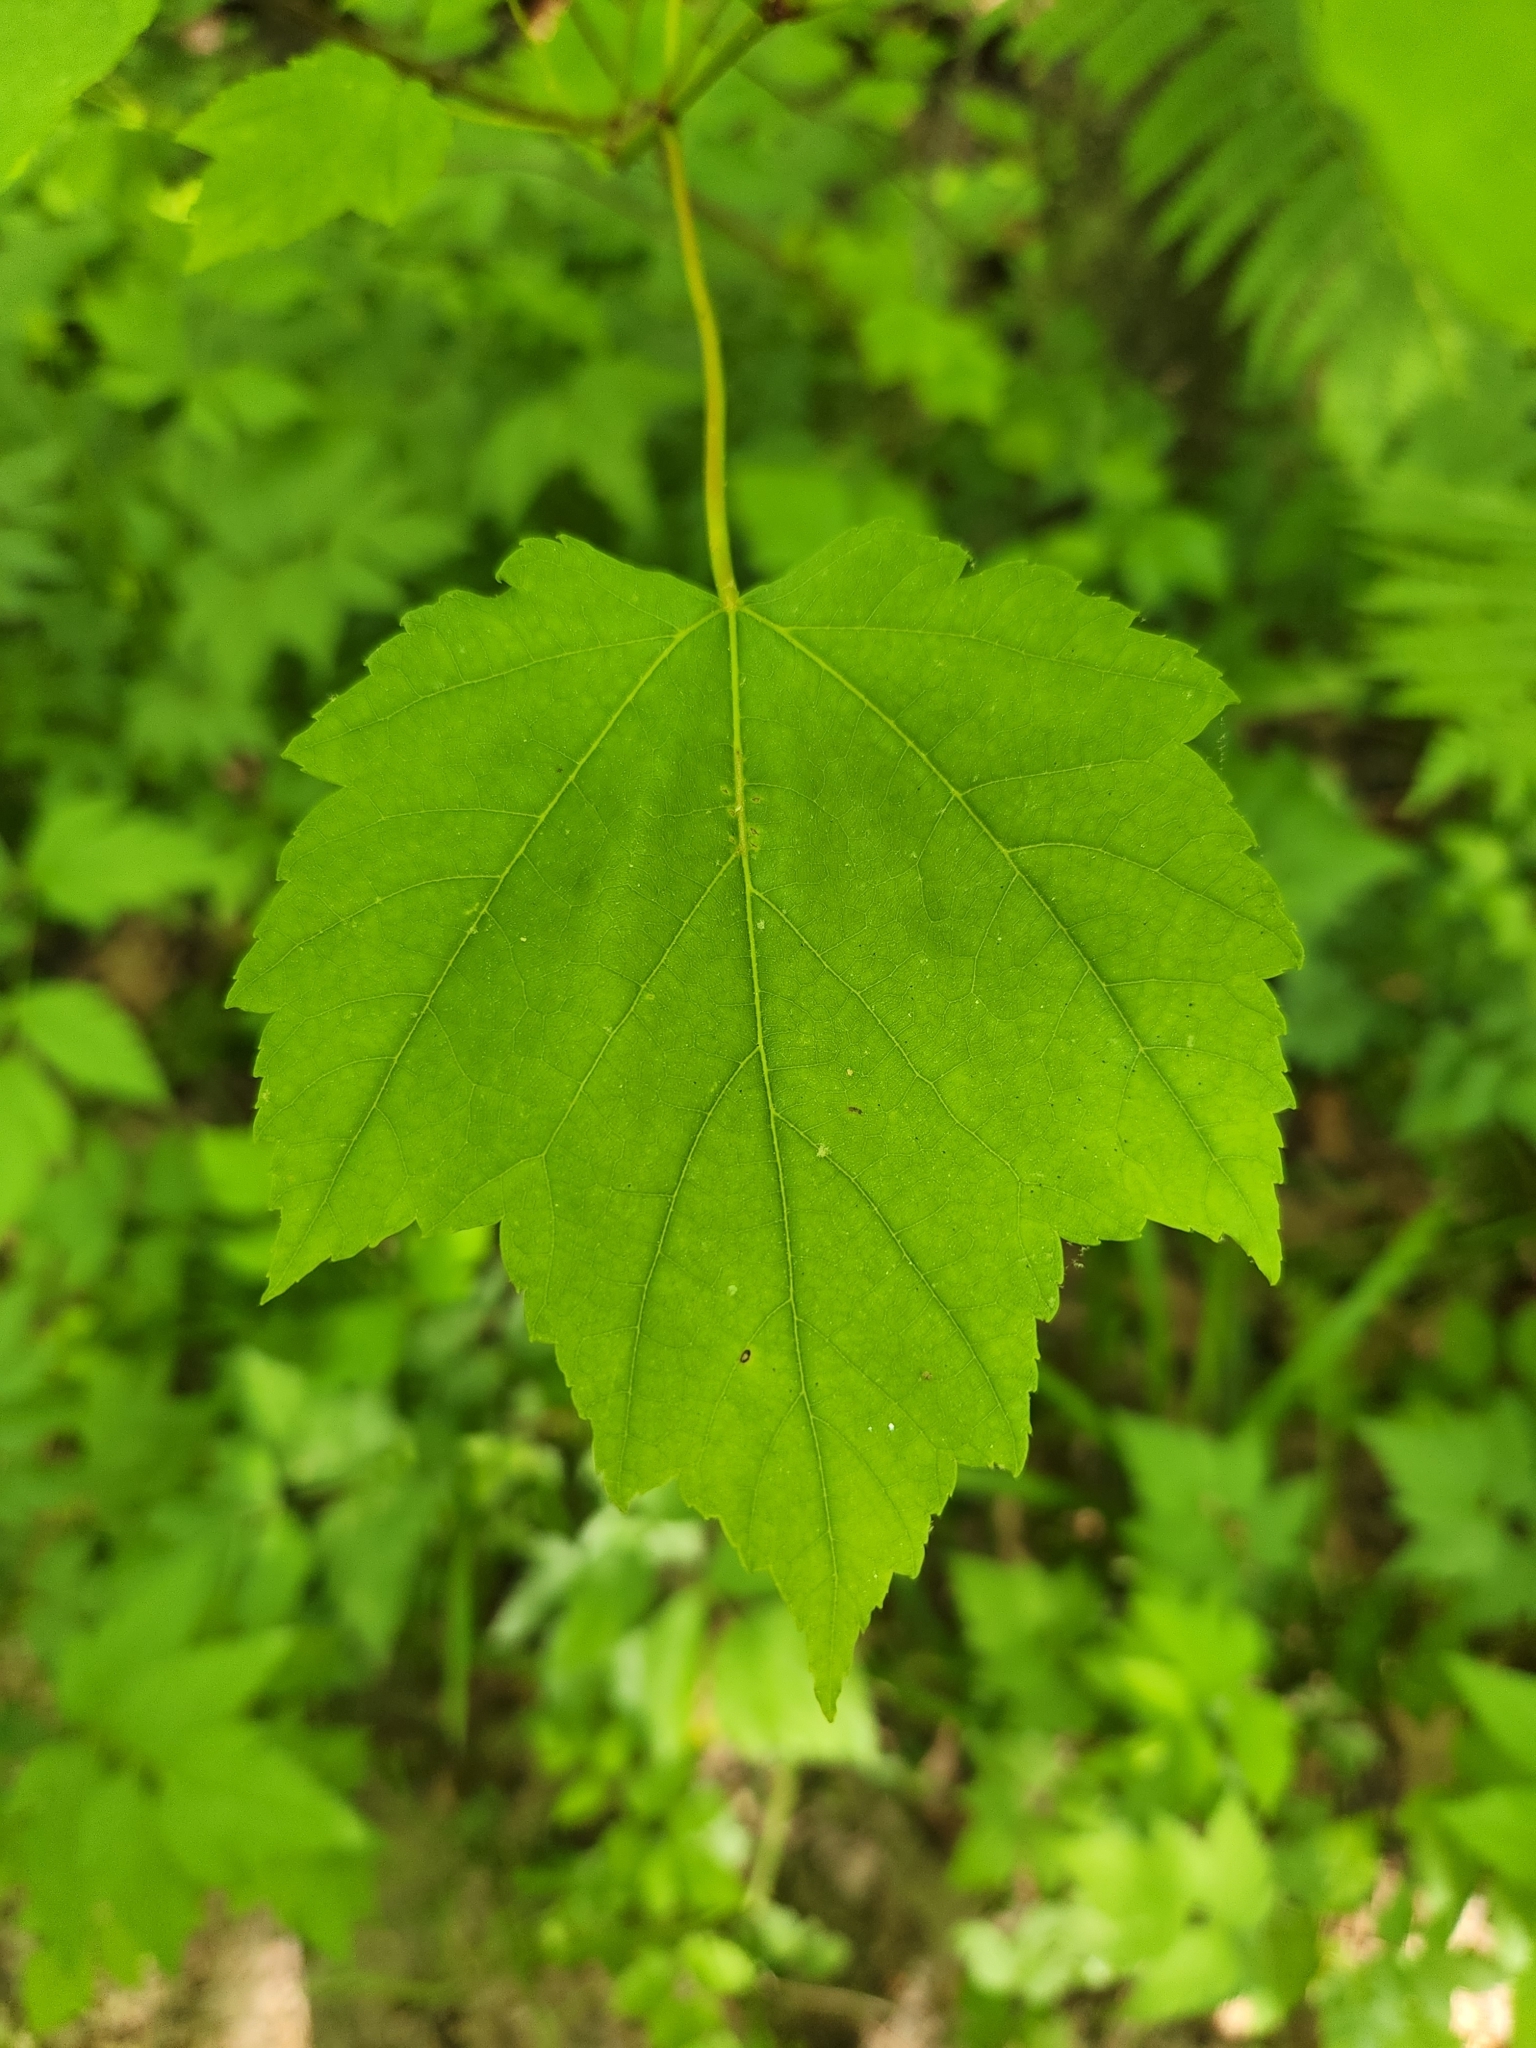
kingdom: Plantae
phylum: Tracheophyta
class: Magnoliopsida
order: Sapindales
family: Sapindaceae
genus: Acer
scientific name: Acer rubrum
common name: Red maple
